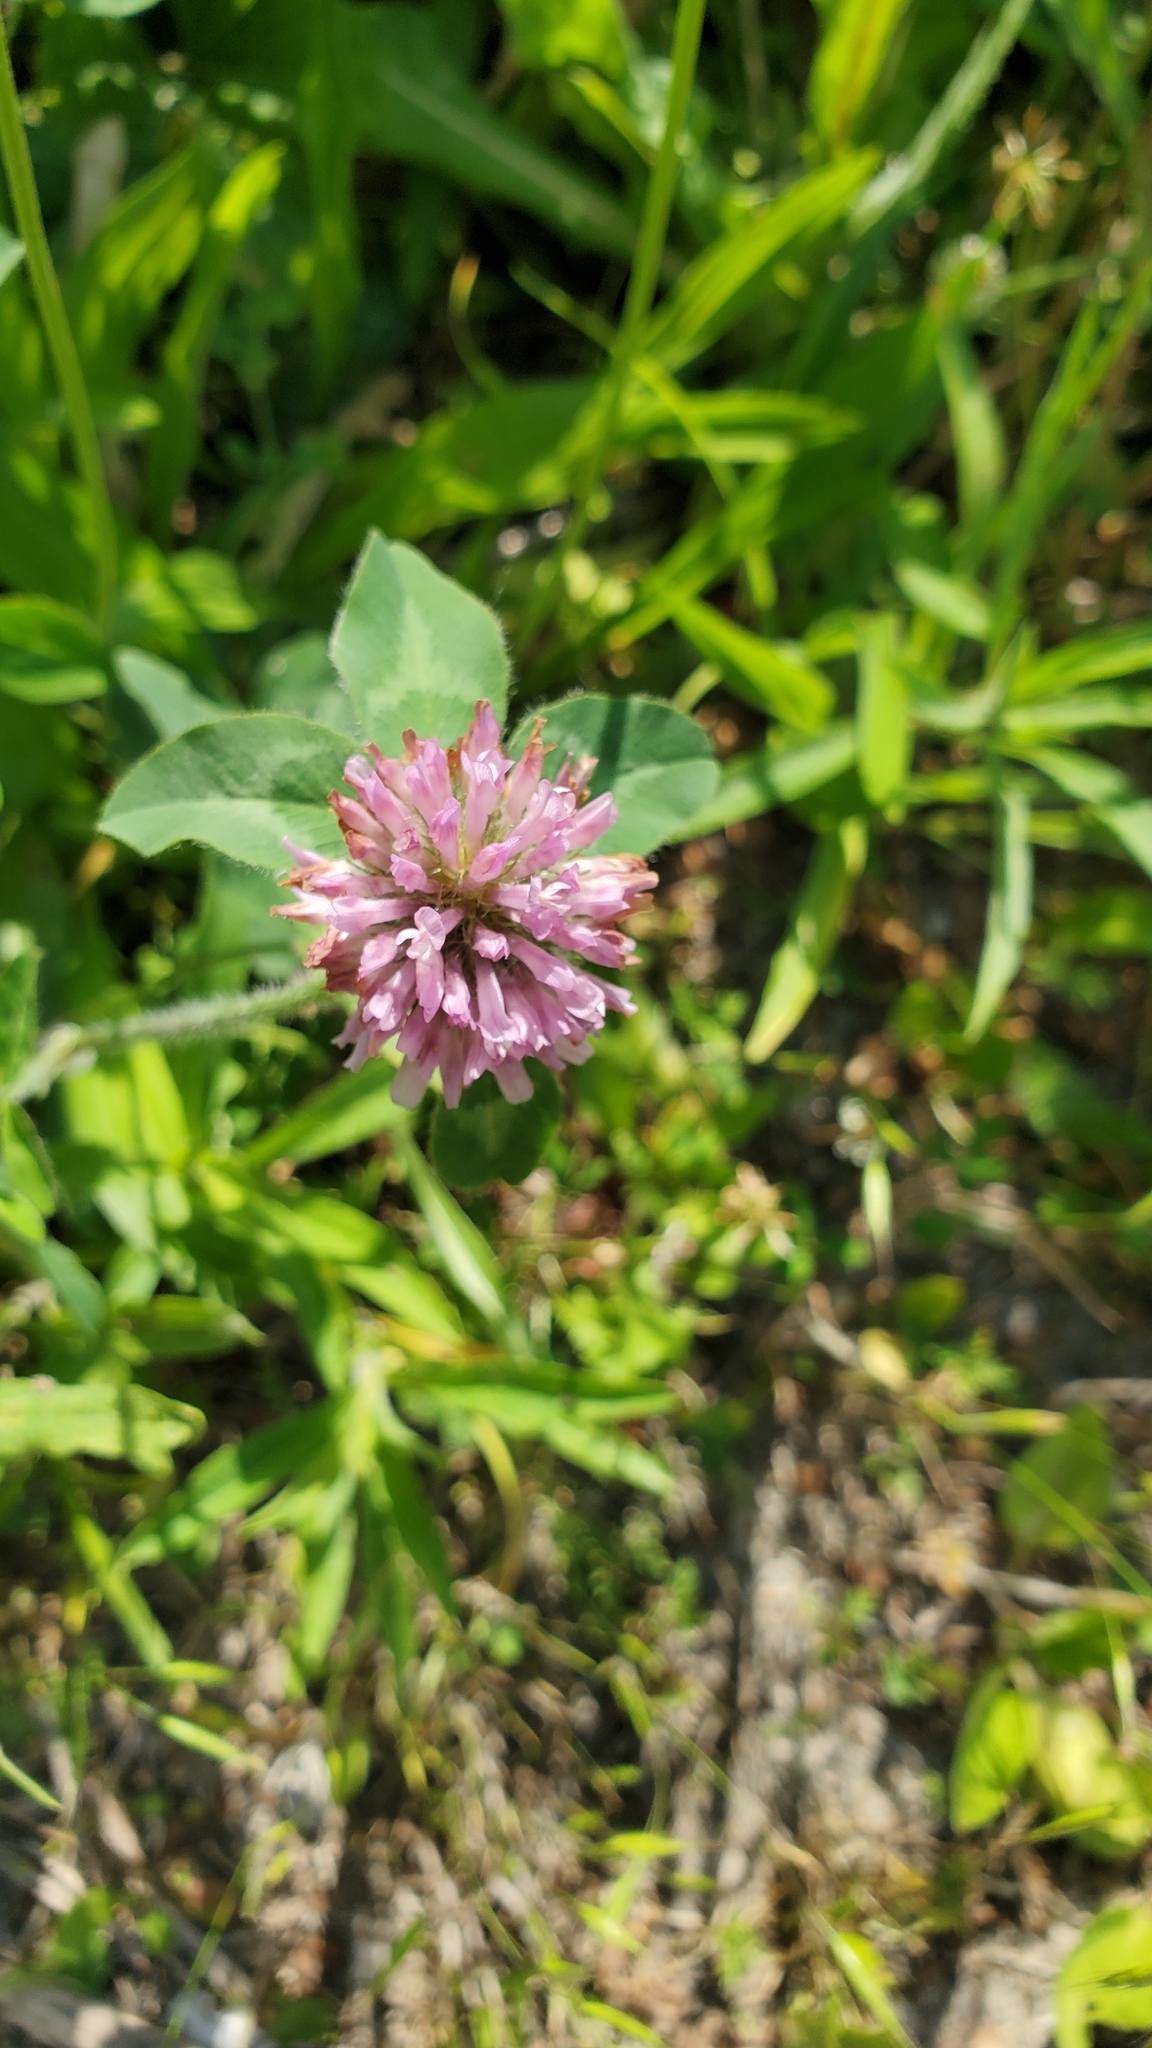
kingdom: Plantae
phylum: Tracheophyta
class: Magnoliopsida
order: Fabales
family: Fabaceae
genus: Trifolium
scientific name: Trifolium pratense
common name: Red clover
